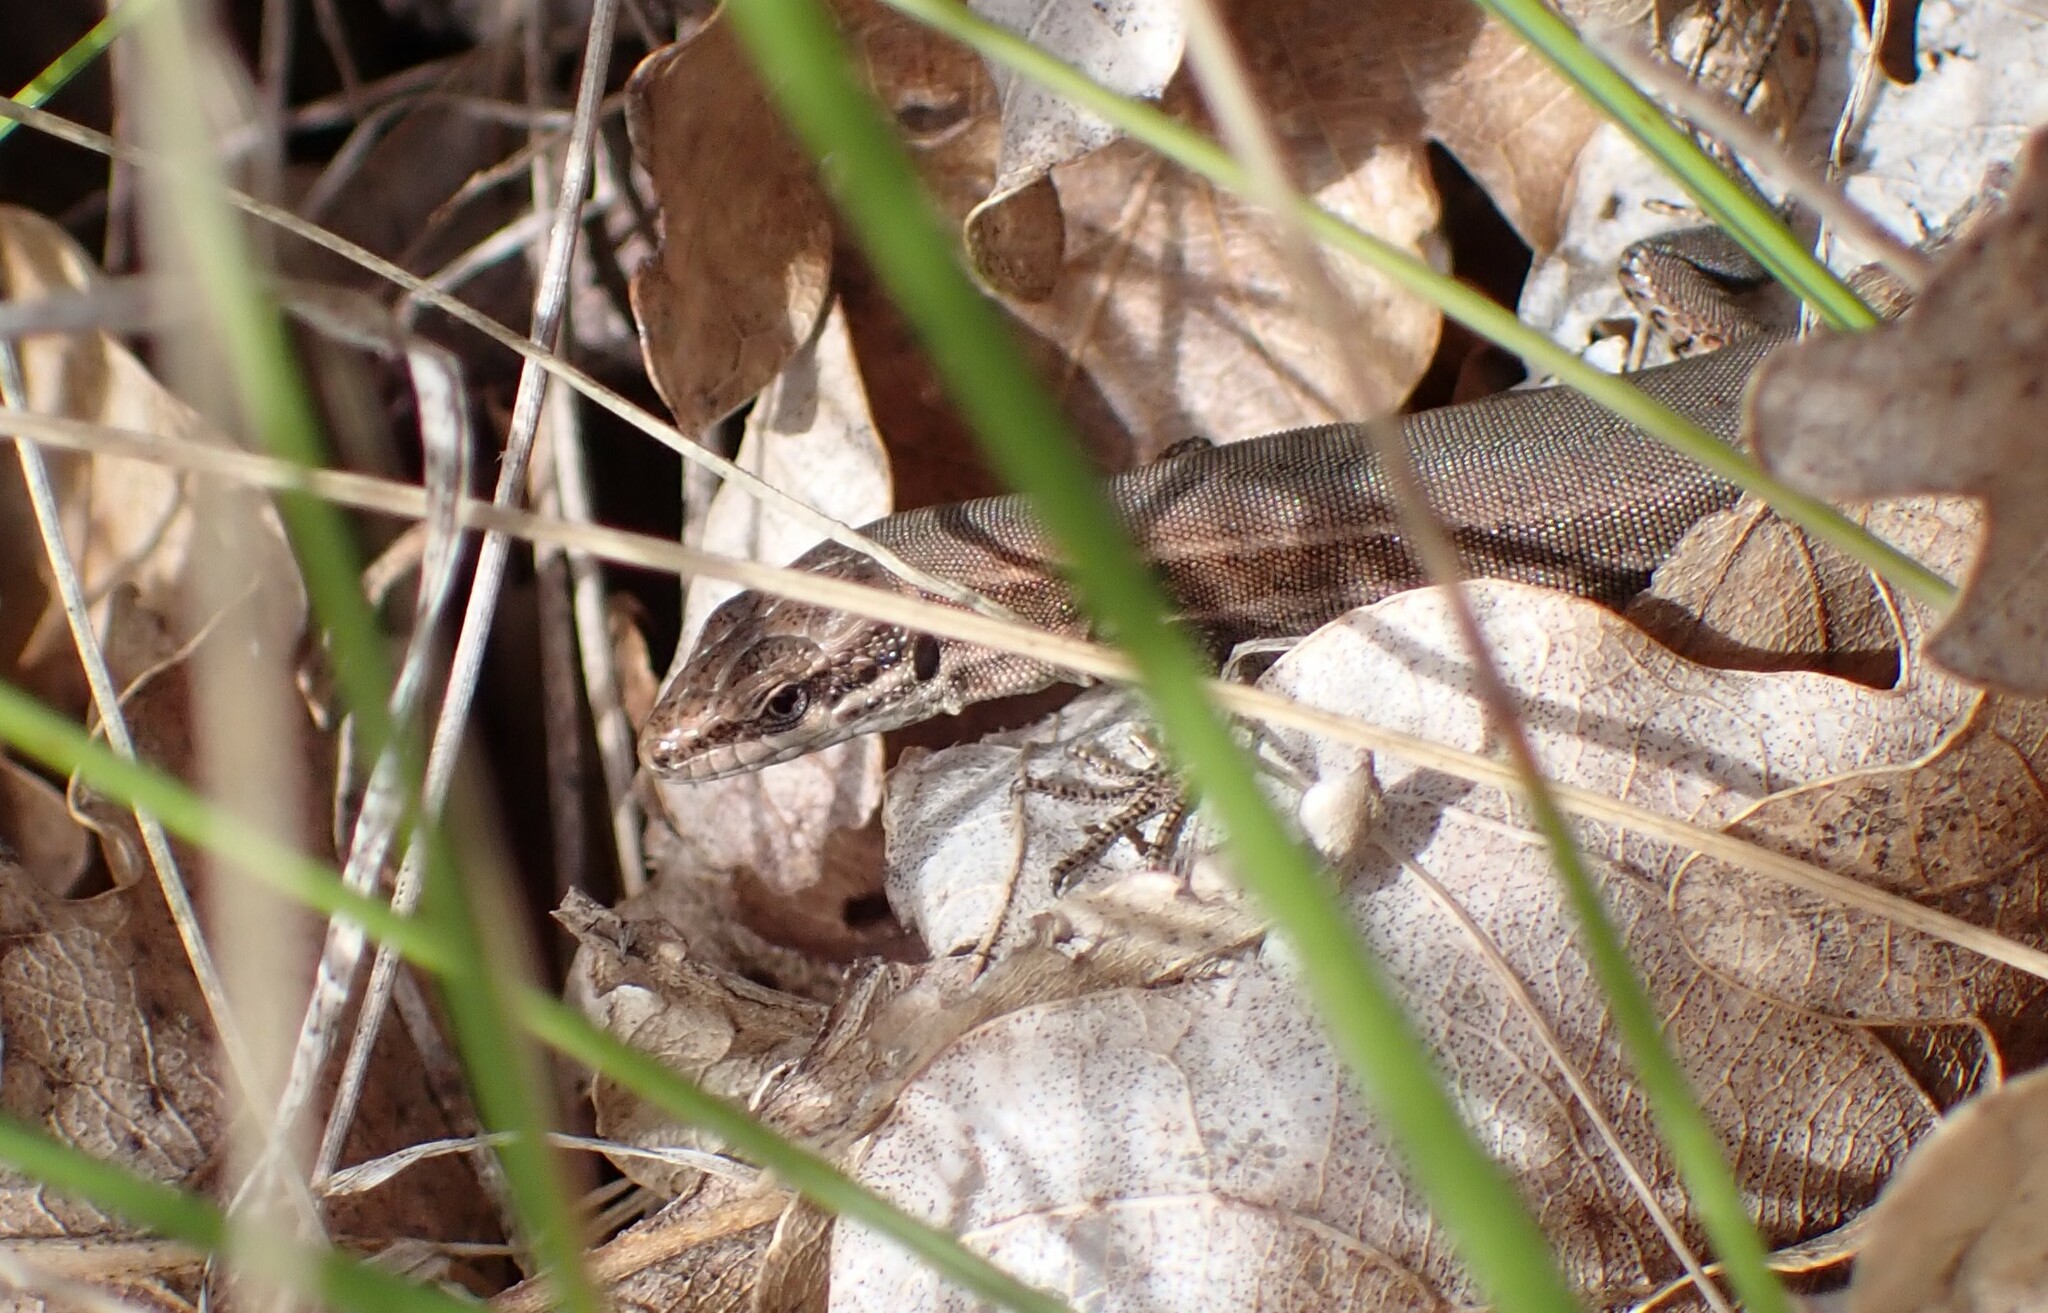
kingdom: Animalia
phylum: Chordata
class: Squamata
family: Lacertidae
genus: Podarcis
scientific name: Podarcis muralis
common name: Common wall lizard
